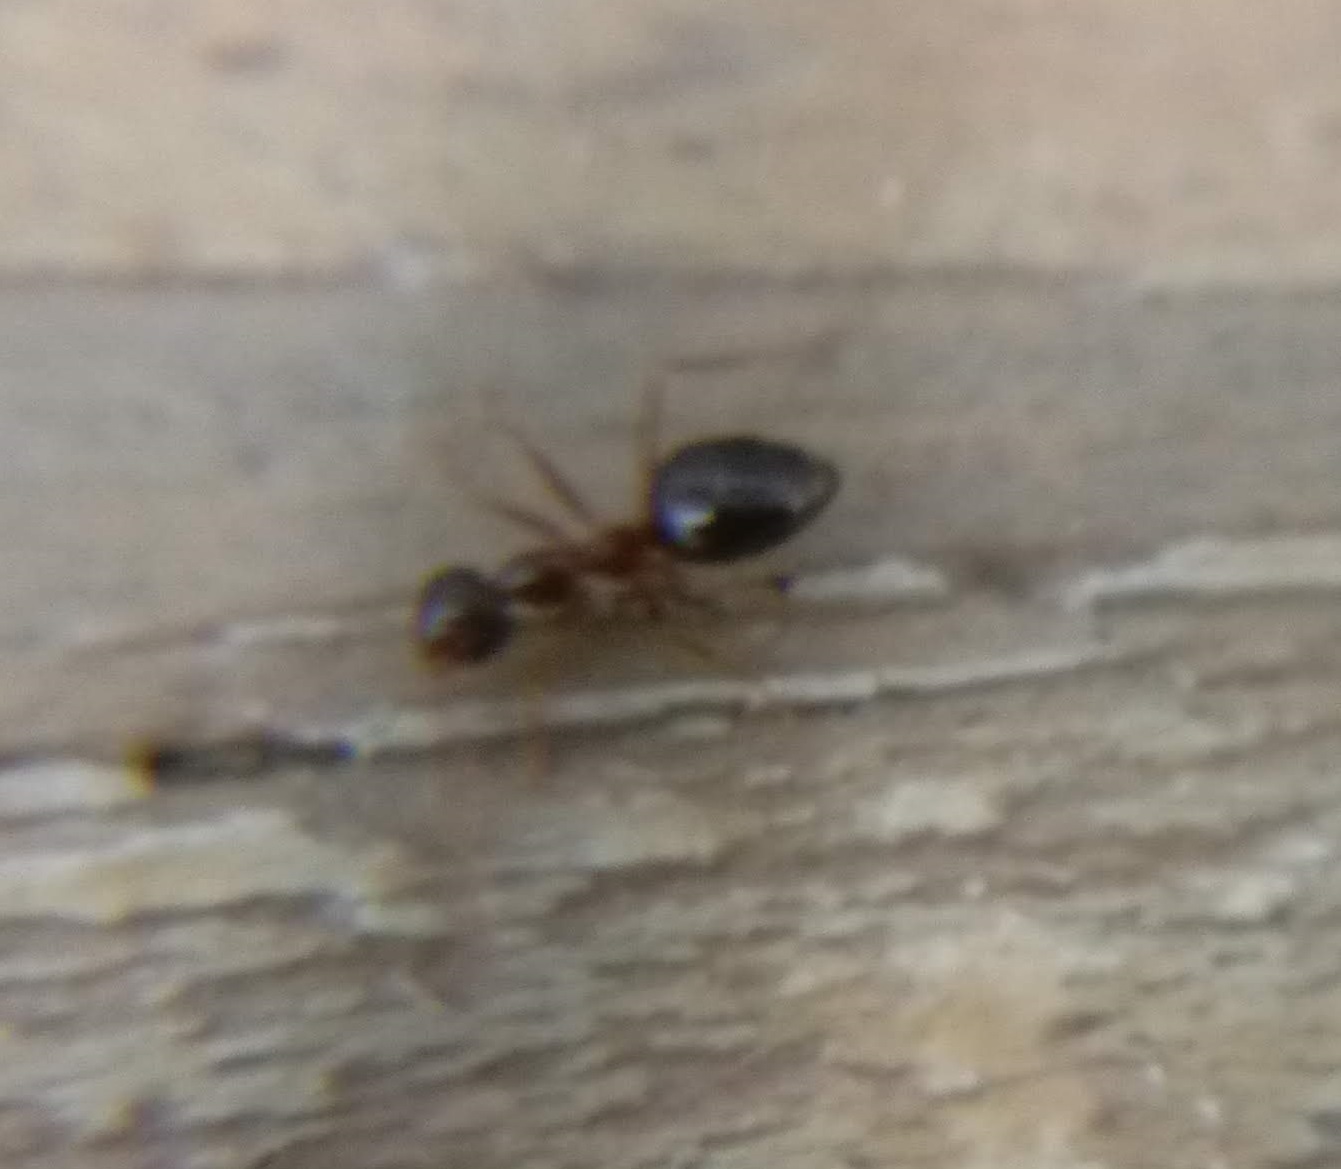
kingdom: Animalia
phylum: Arthropoda
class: Insecta
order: Hymenoptera
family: Formicidae
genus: Prenolepis
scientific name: Prenolepis imparis
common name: Small honey ant
